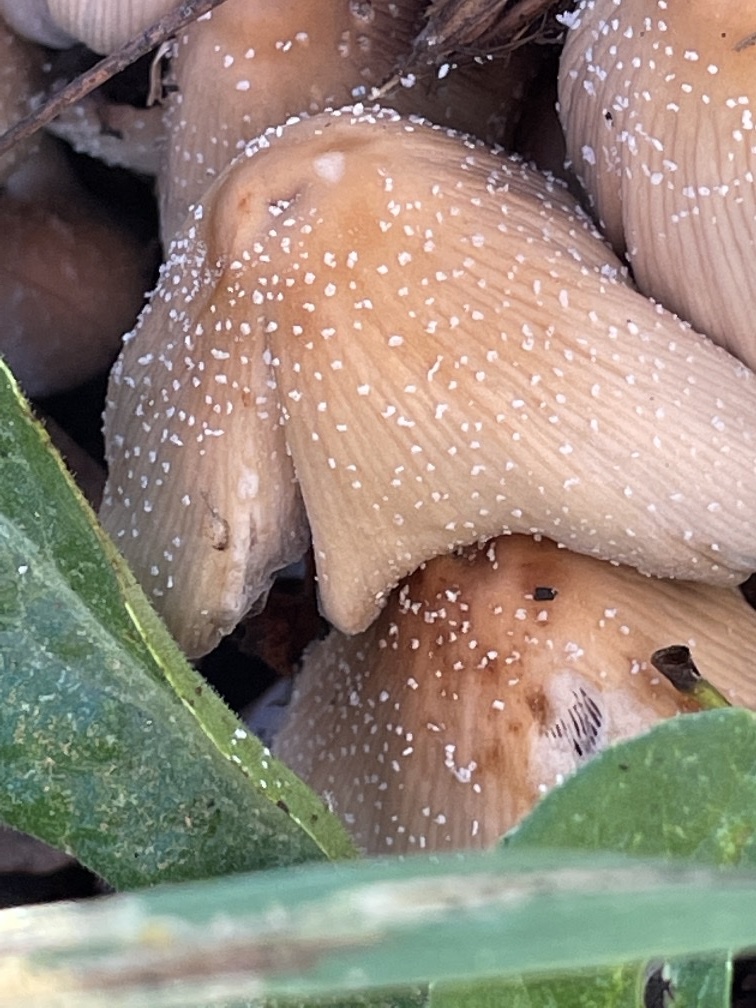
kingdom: Fungi
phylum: Basidiomycota
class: Agaricomycetes
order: Agaricales
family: Psathyrellaceae
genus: Coprinellus
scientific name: Coprinellus micaceus
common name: Glistening ink-cap
